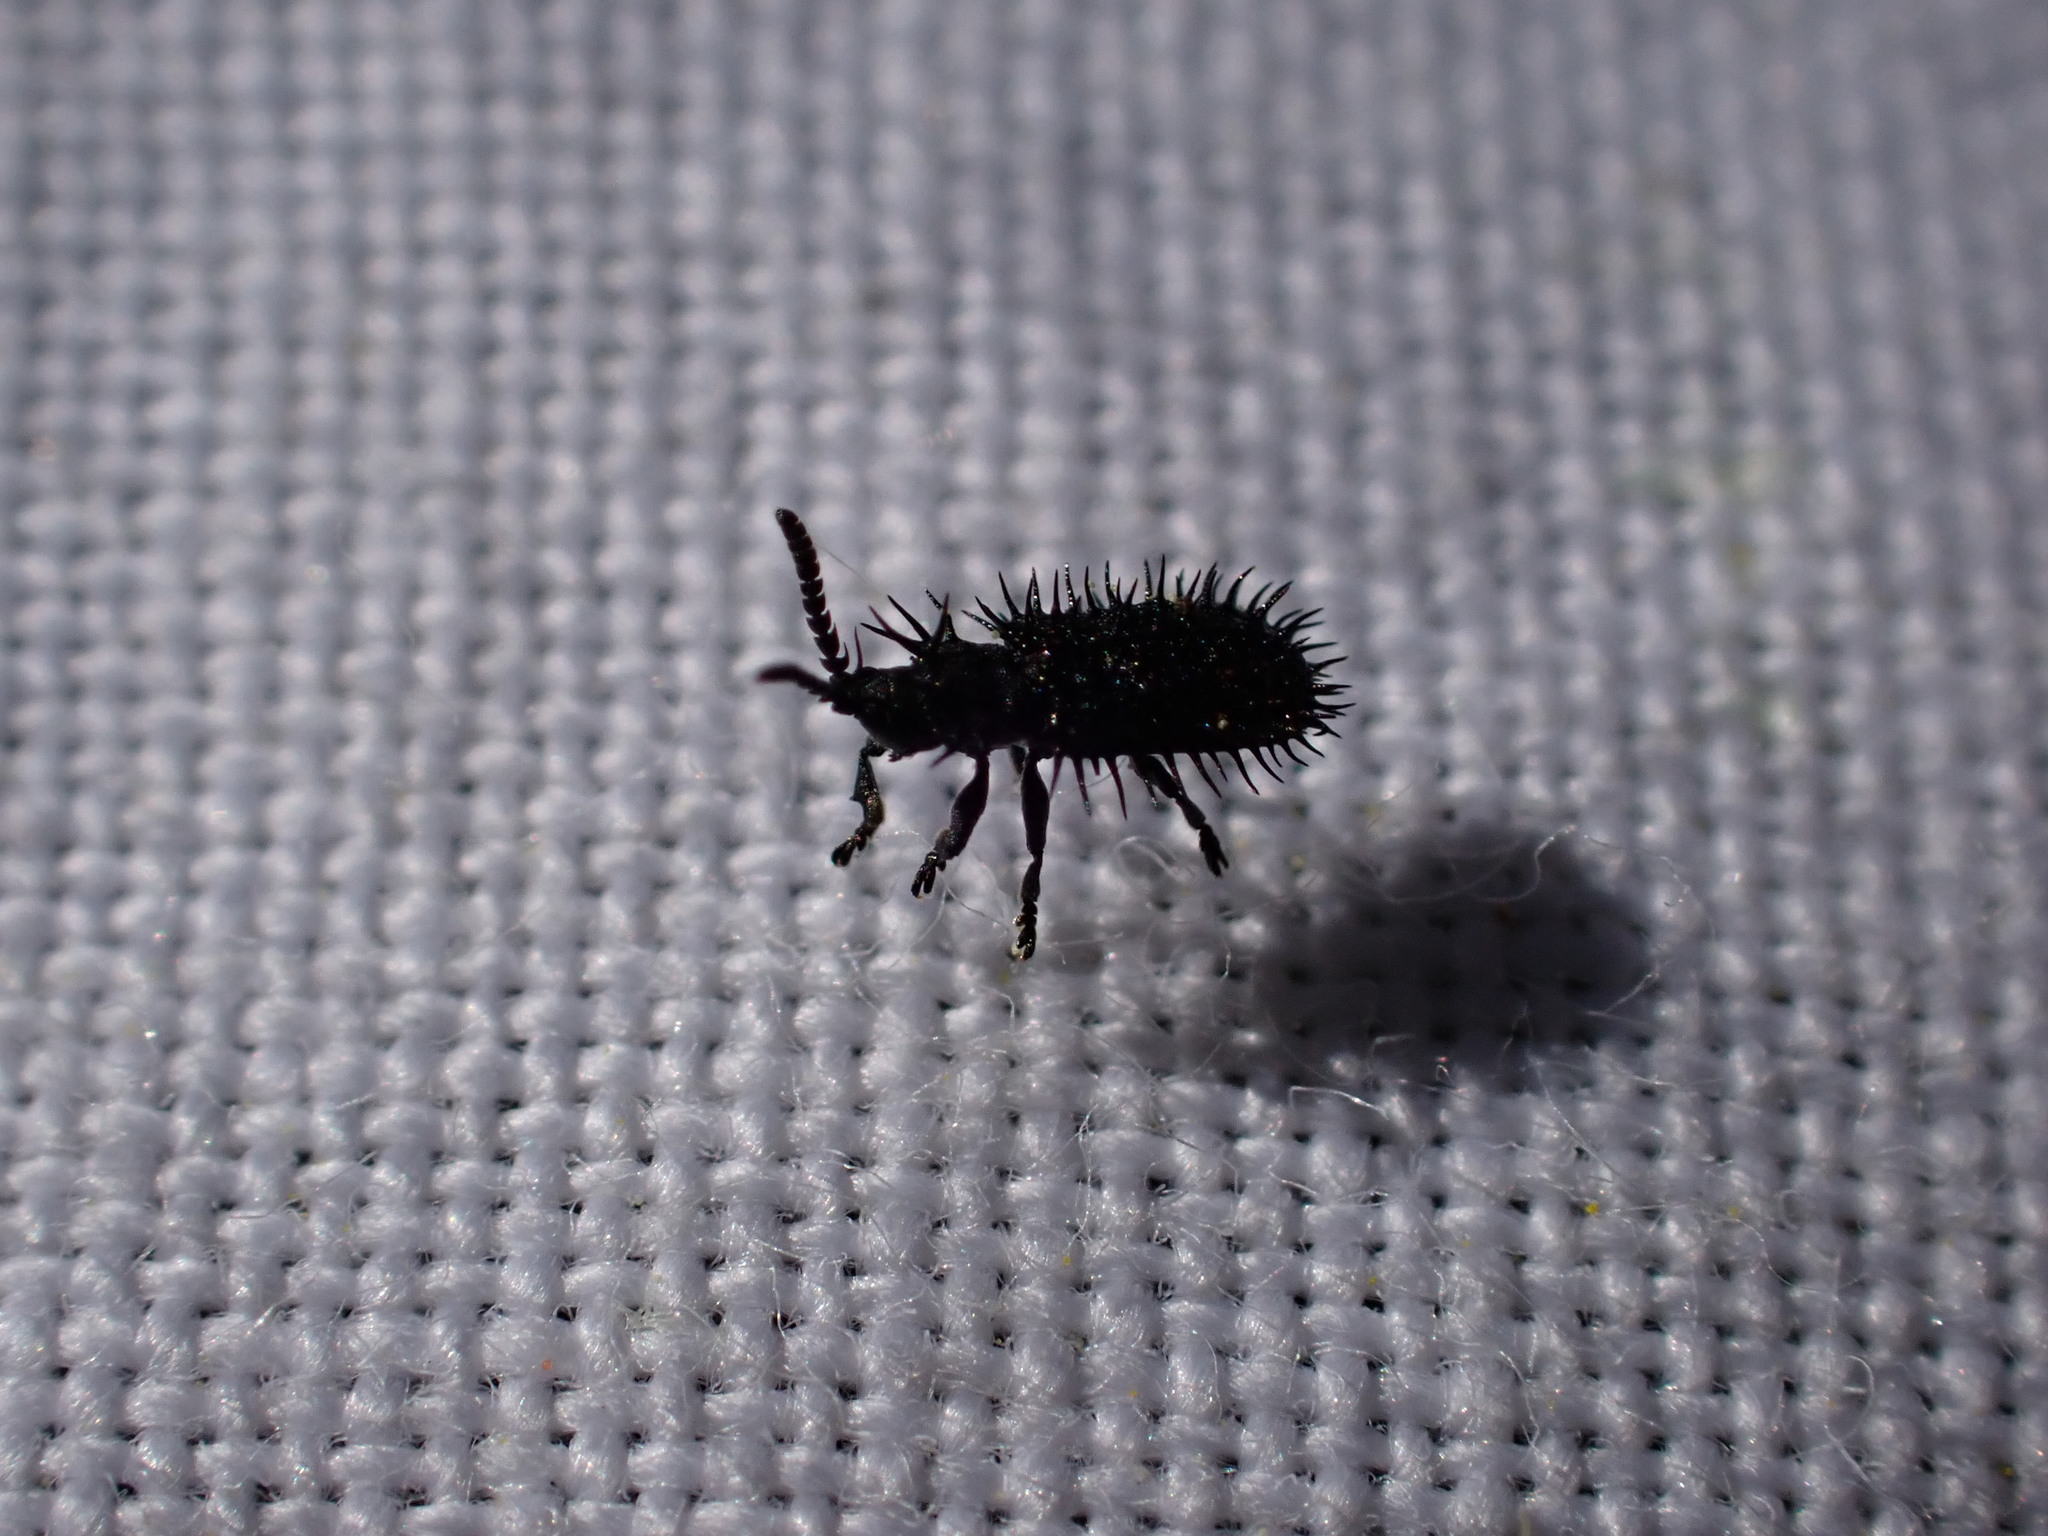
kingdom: Animalia
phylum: Arthropoda
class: Insecta
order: Coleoptera
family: Chrysomelidae
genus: Hispa
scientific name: Hispa atra
